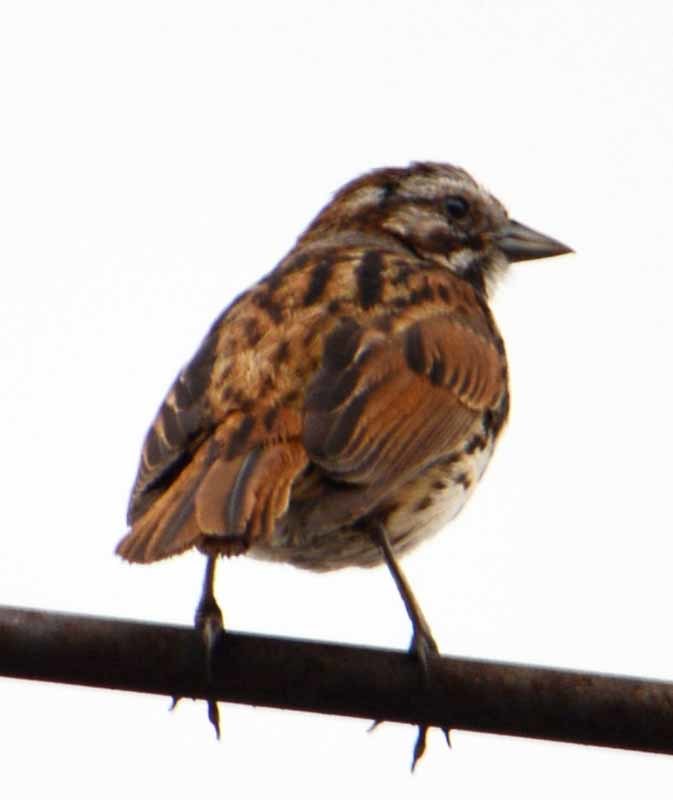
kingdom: Animalia
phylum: Chordata
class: Aves
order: Passeriformes
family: Passerellidae
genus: Melospiza
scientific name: Melospiza melodia
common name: Song sparrow
